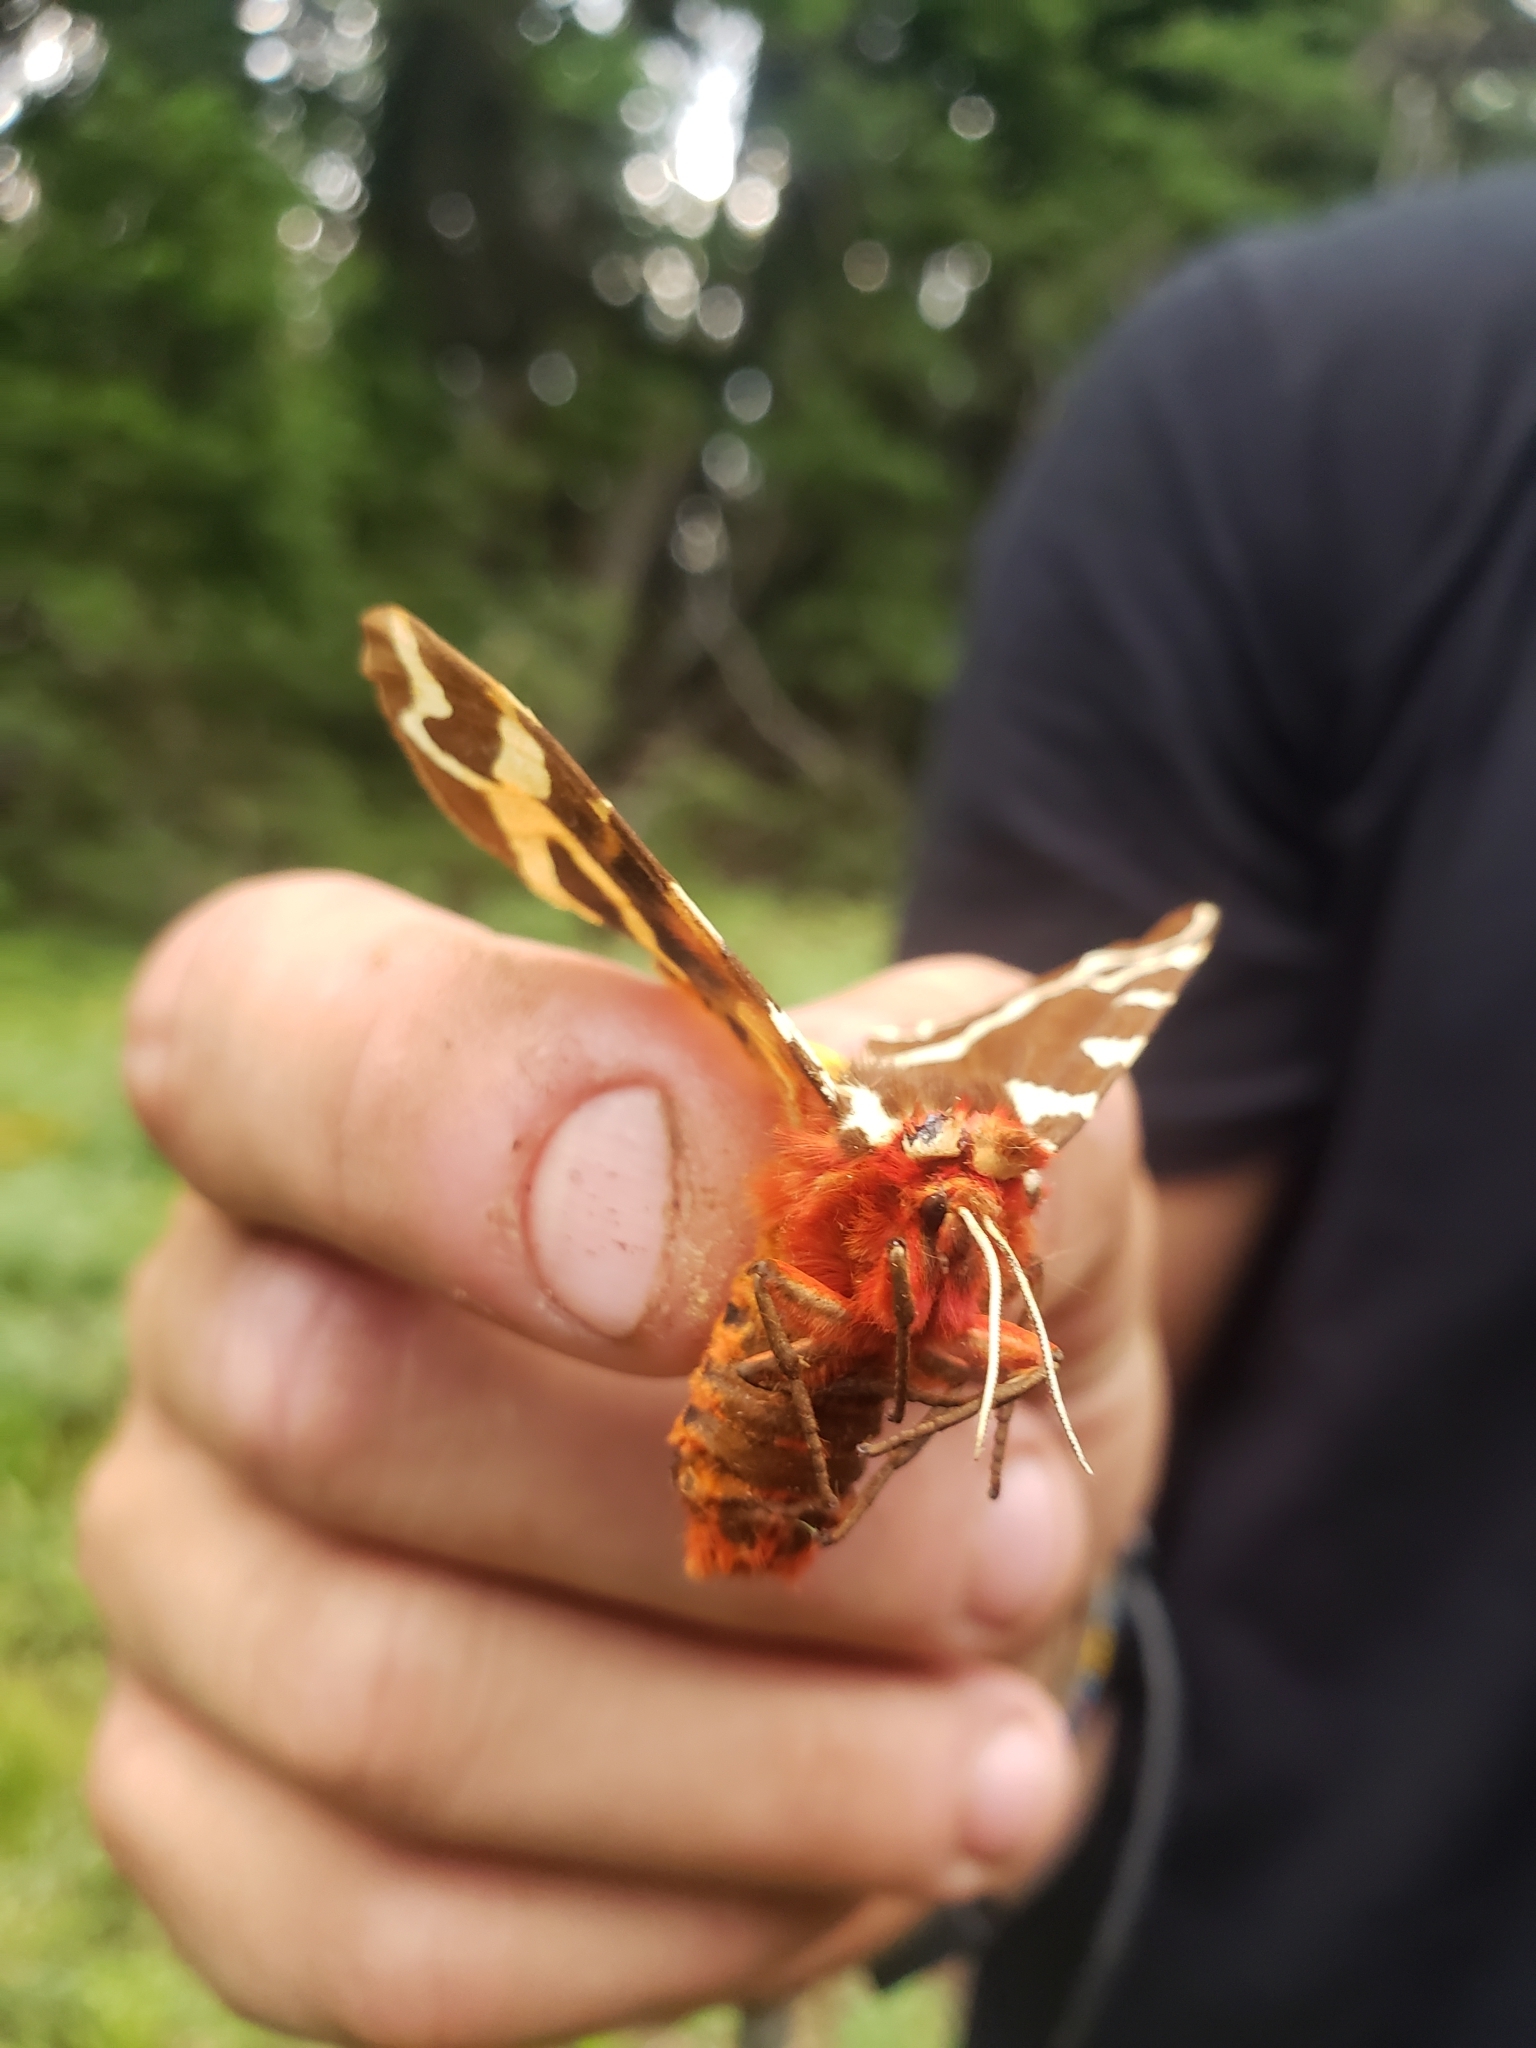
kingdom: Animalia
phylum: Arthropoda
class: Insecta
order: Lepidoptera
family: Erebidae
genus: Arctia
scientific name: Arctia caja
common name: Garden tiger
